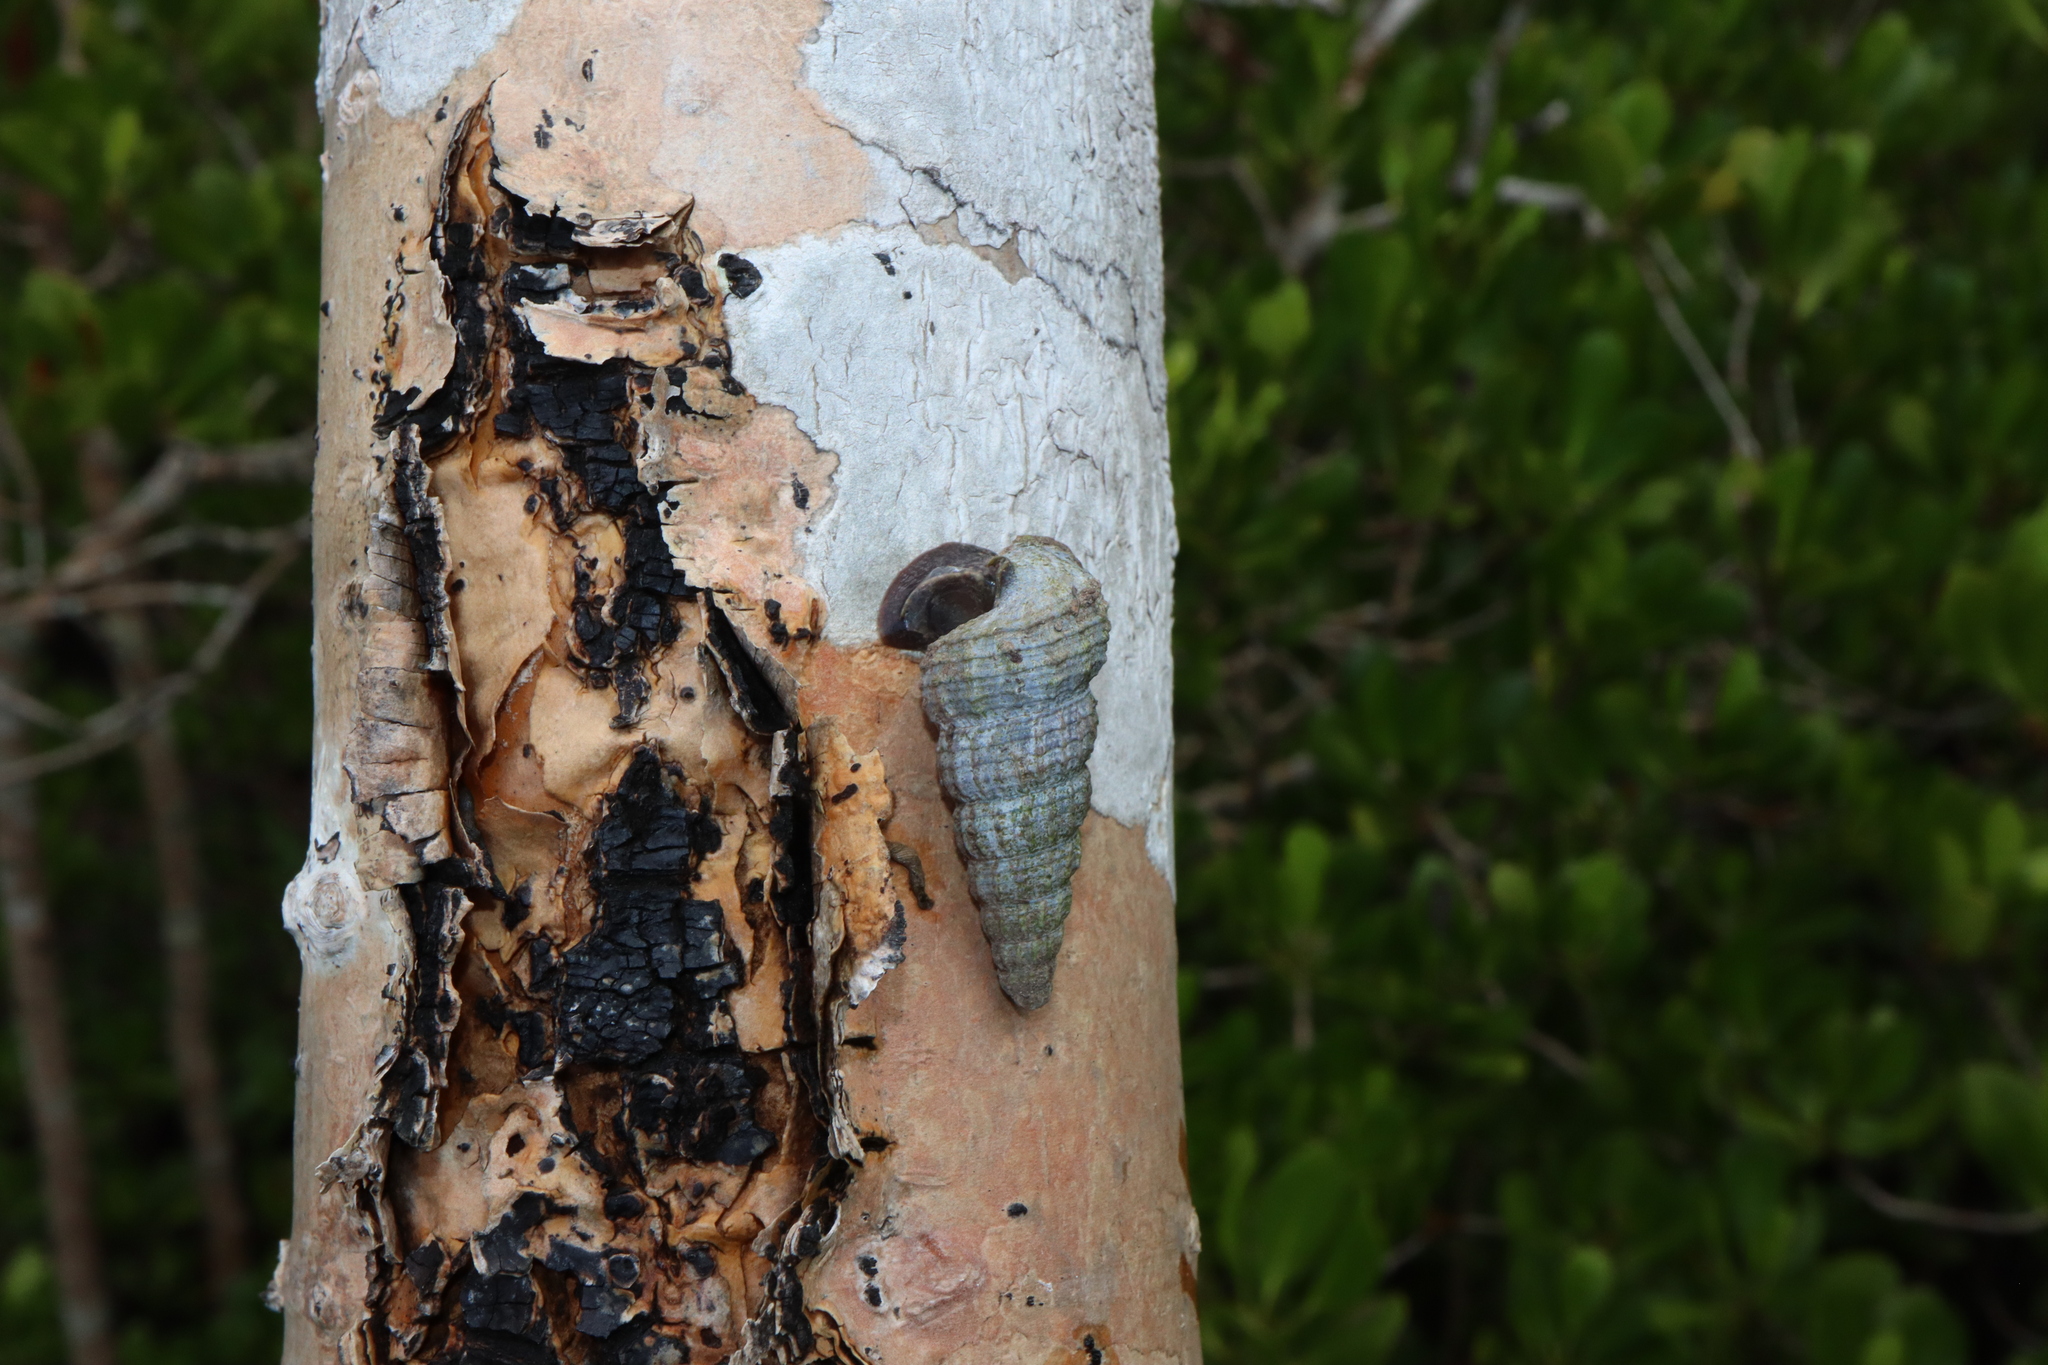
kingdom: Animalia
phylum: Mollusca
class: Gastropoda
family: Potamididae
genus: Cerithidea
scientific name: Cerithidea anticipata
